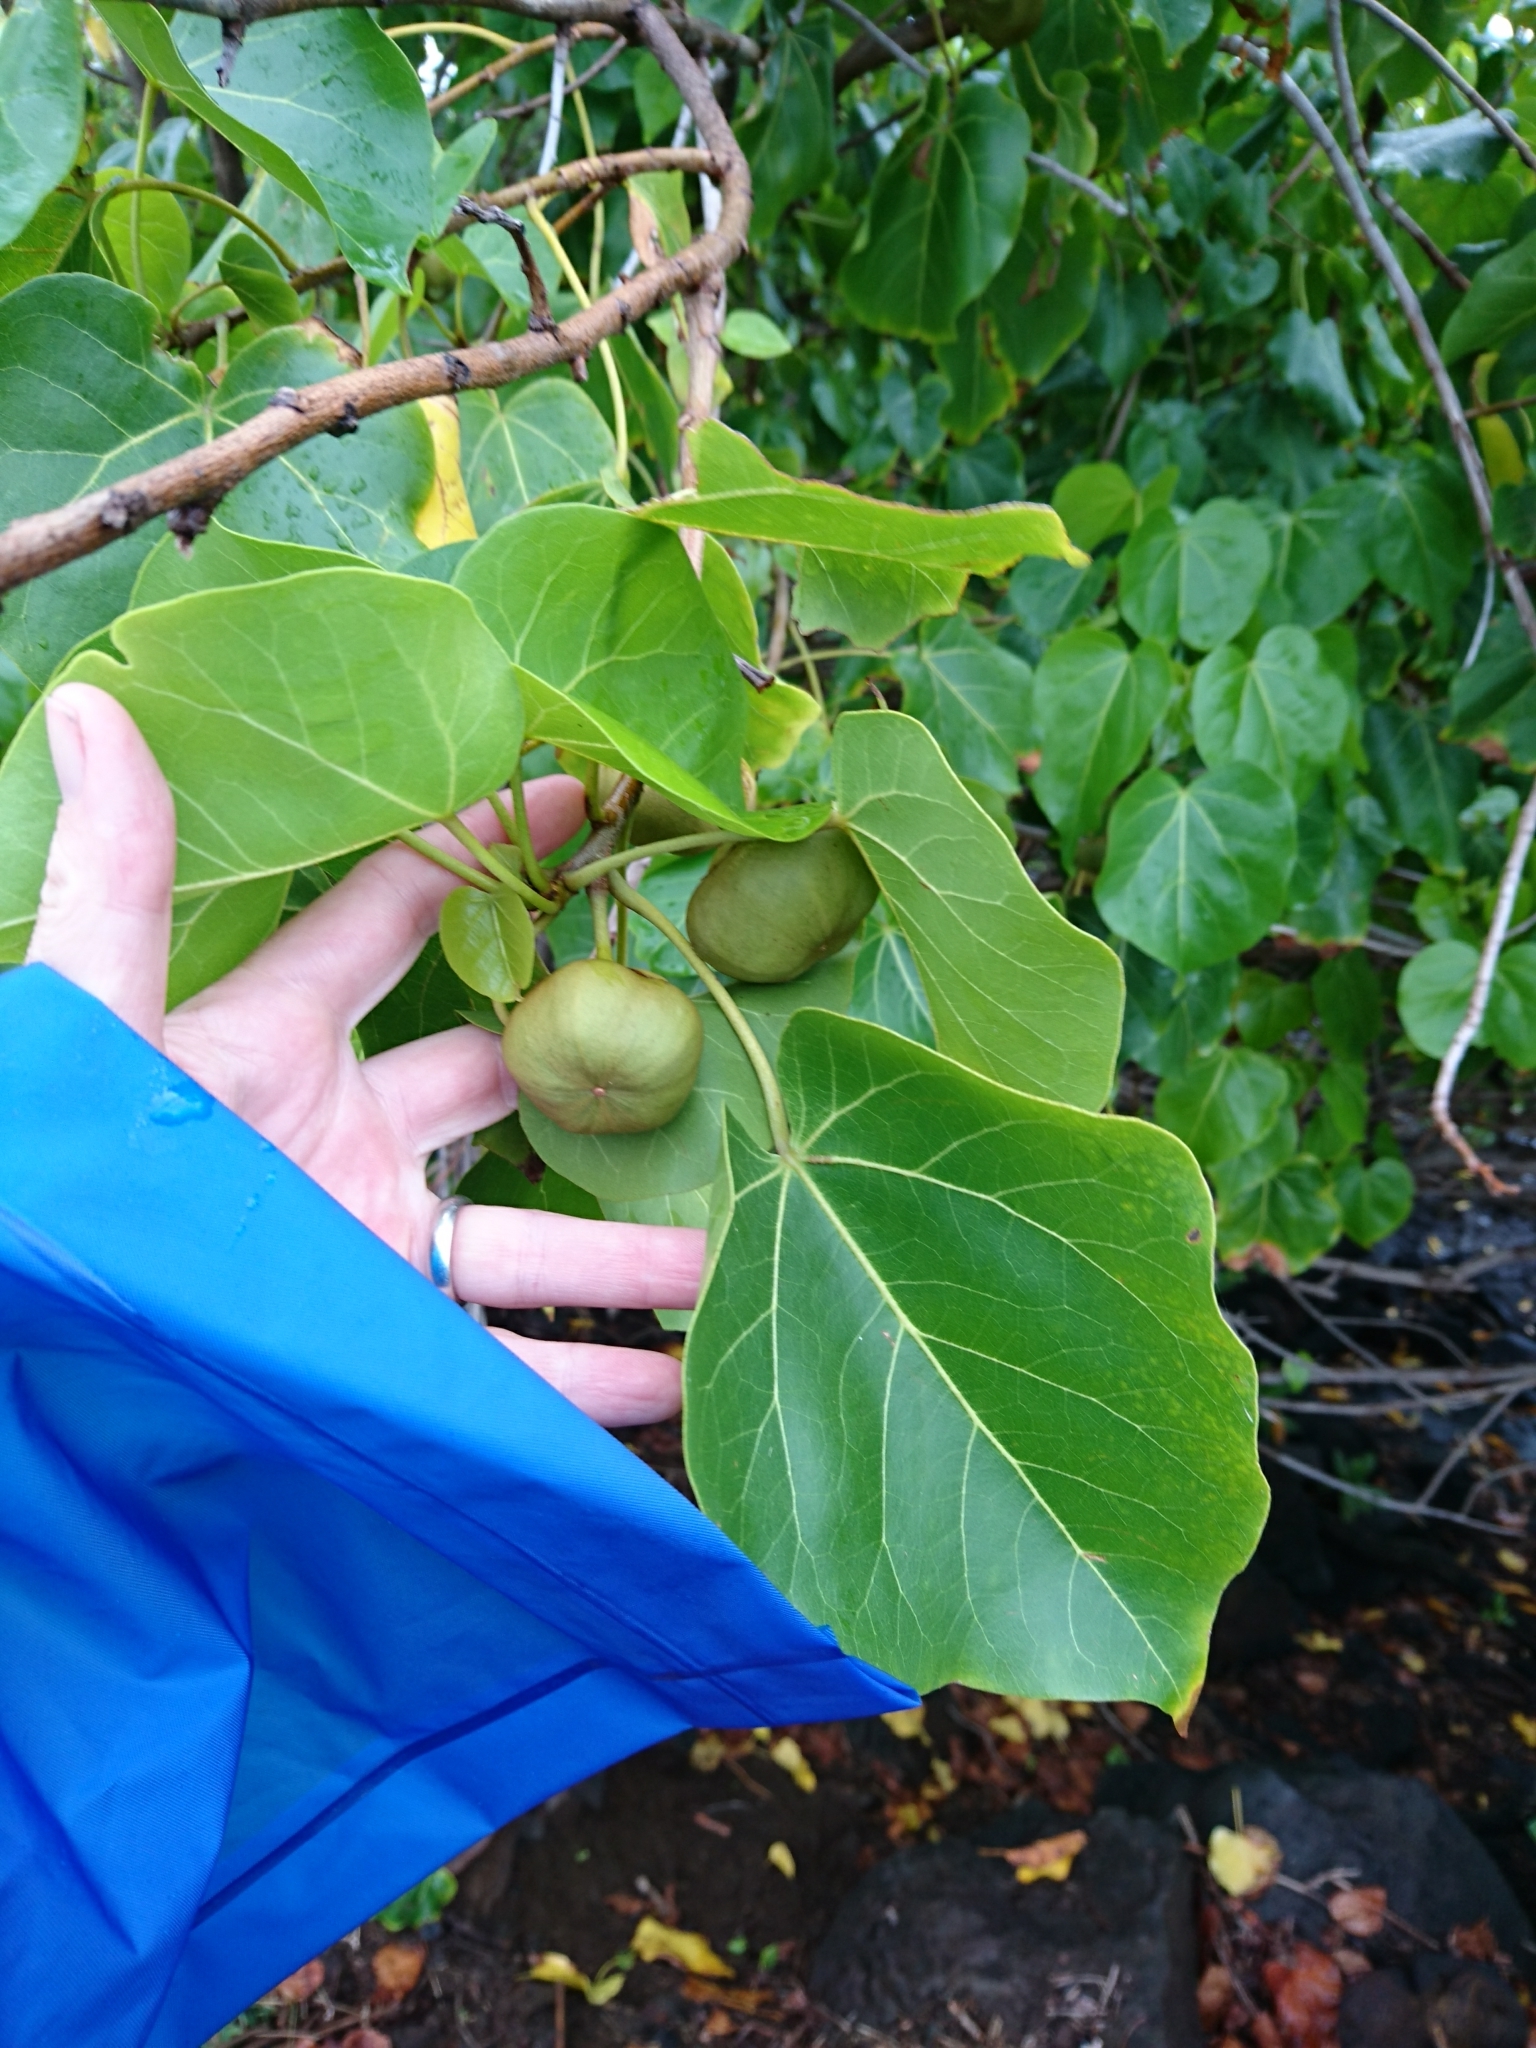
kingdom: Plantae
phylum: Tracheophyta
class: Magnoliopsida
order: Malvales
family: Malvaceae
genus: Thespesia
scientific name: Thespesia populnea
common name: Seaside mahoe
